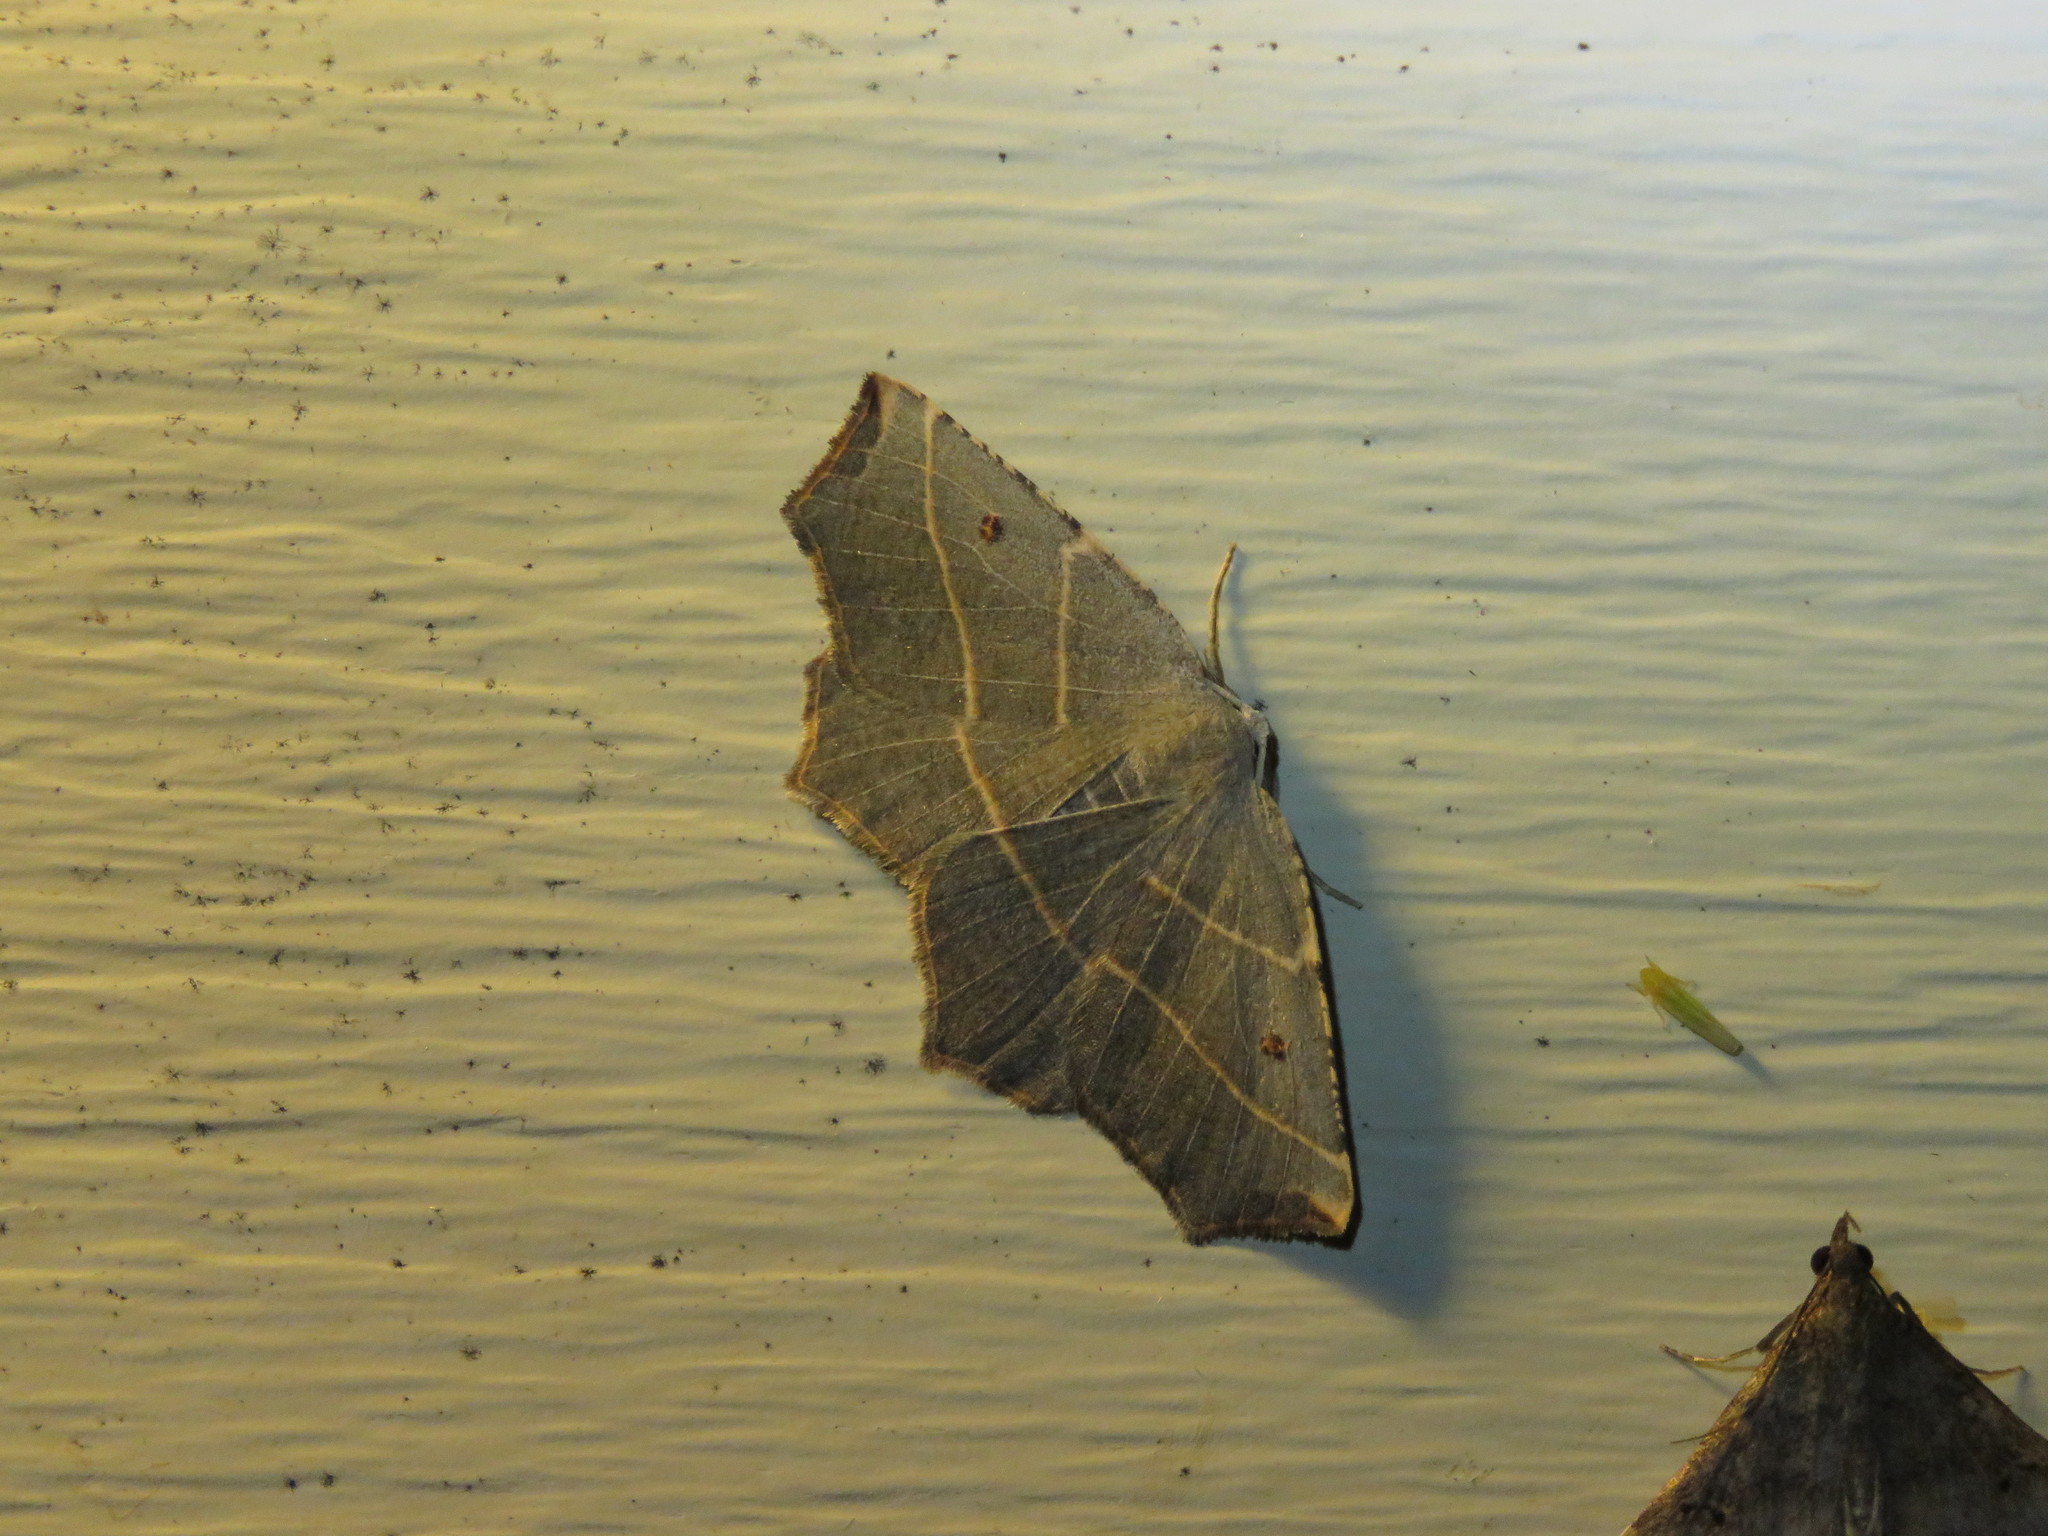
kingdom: Animalia
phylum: Arthropoda
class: Insecta
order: Lepidoptera
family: Geometridae
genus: Metanema
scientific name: Metanema inatomaria
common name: Pale metanema
